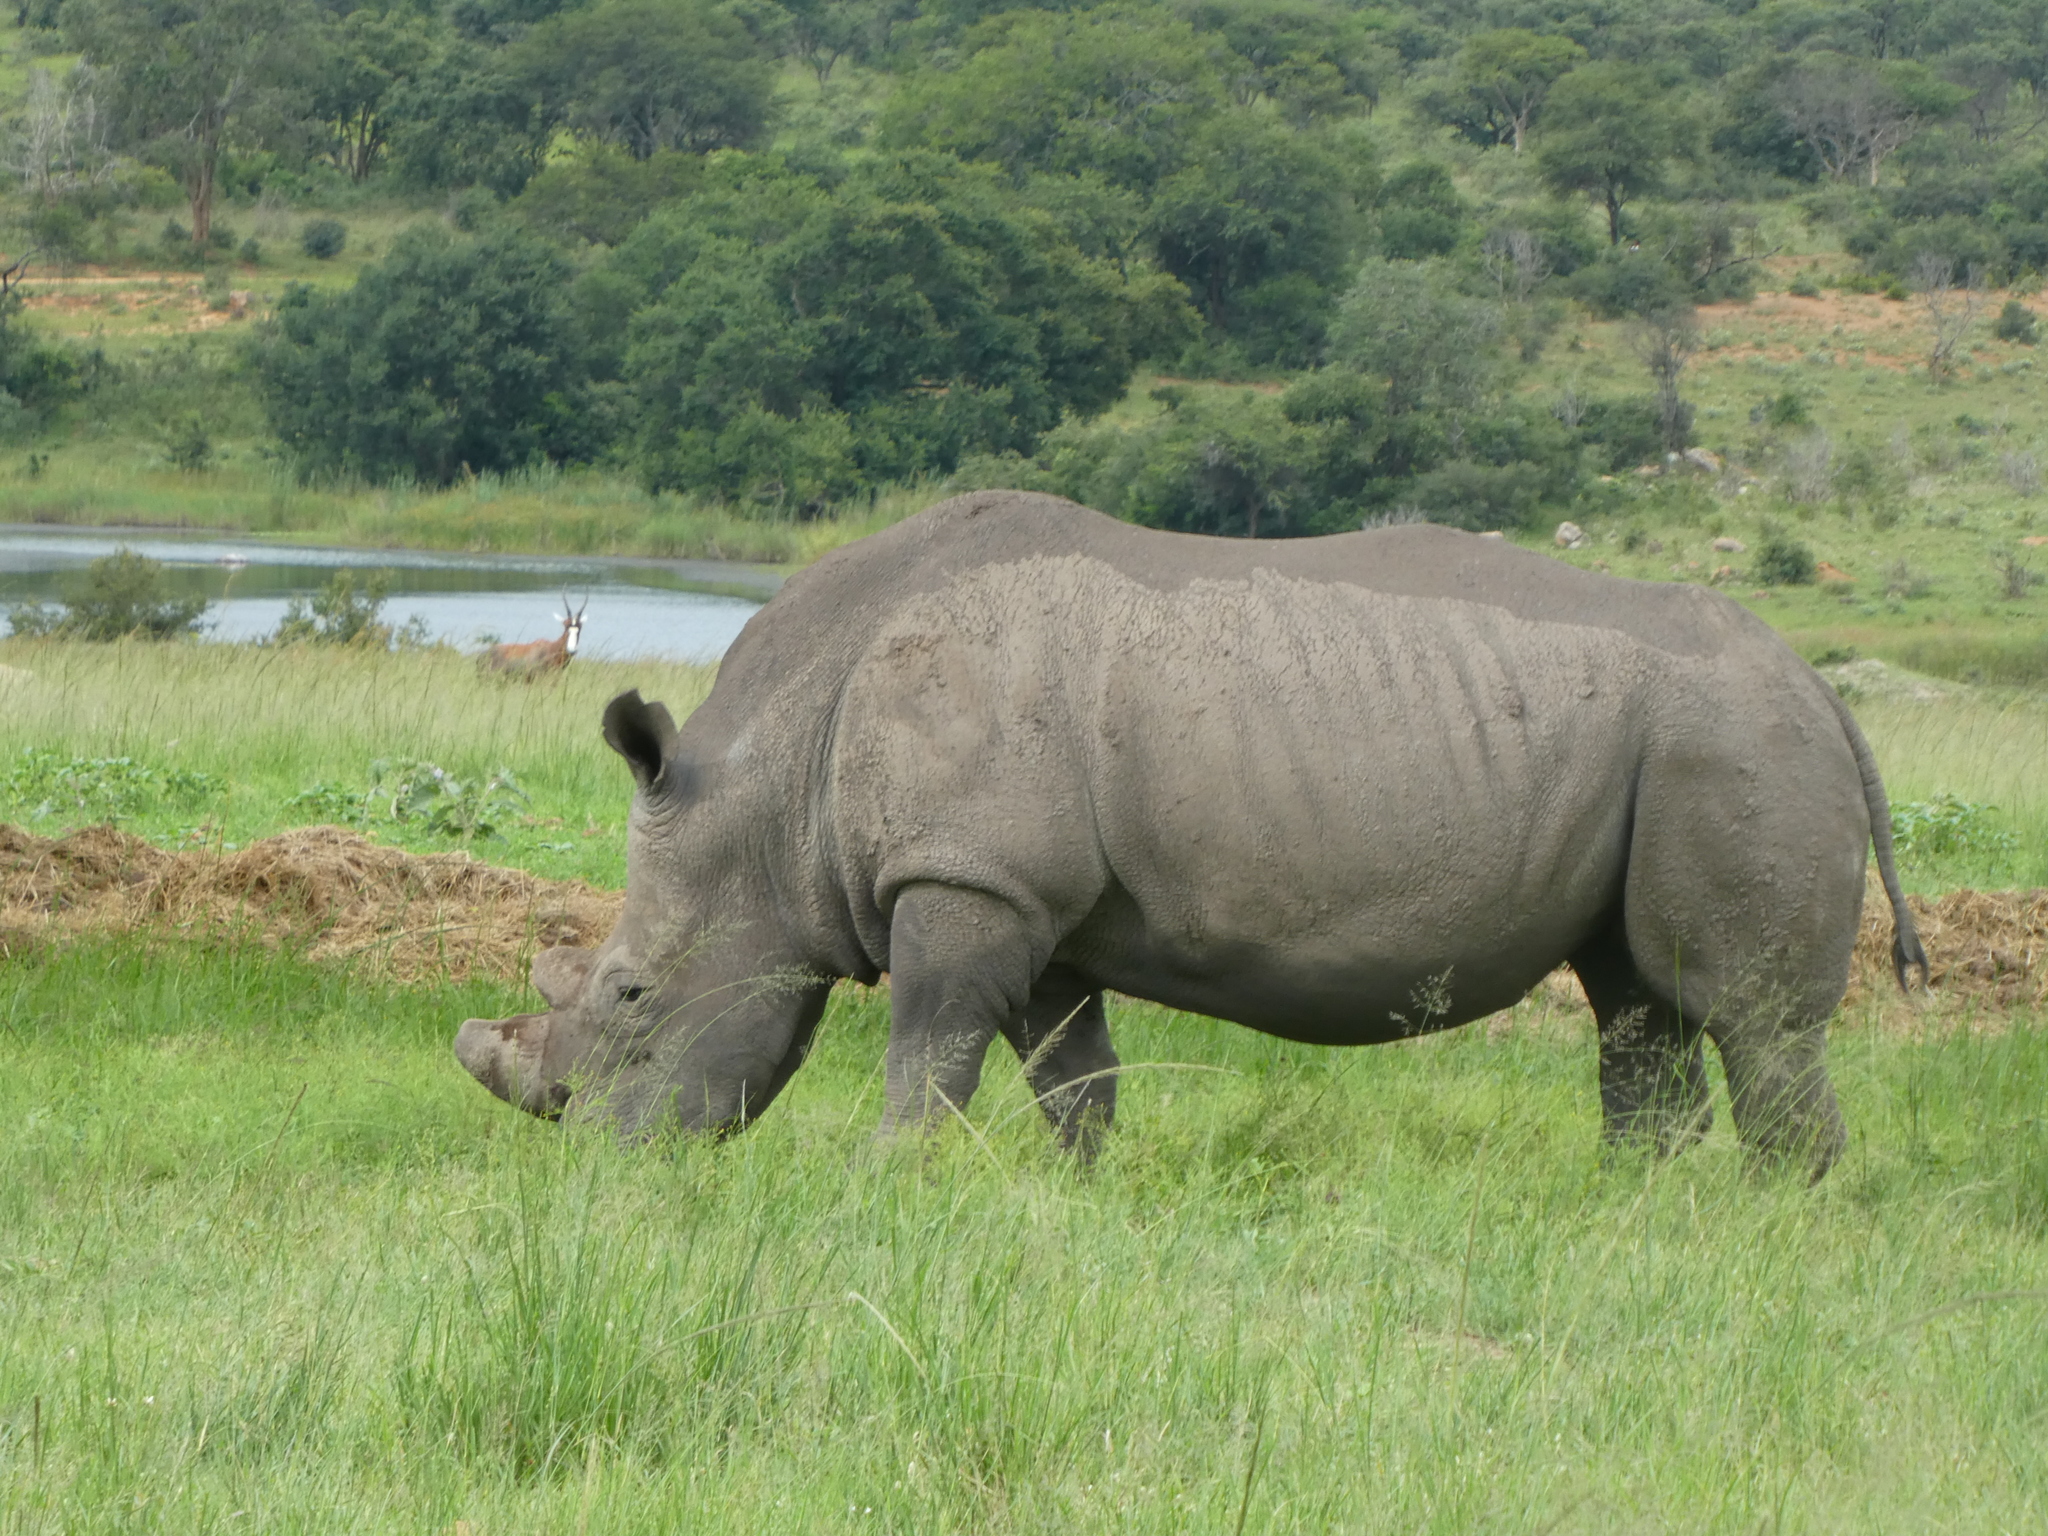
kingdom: Animalia
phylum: Chordata
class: Mammalia
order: Perissodactyla
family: Rhinocerotidae
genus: Ceratotherium
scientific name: Ceratotherium simum
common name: White rhinoceros
